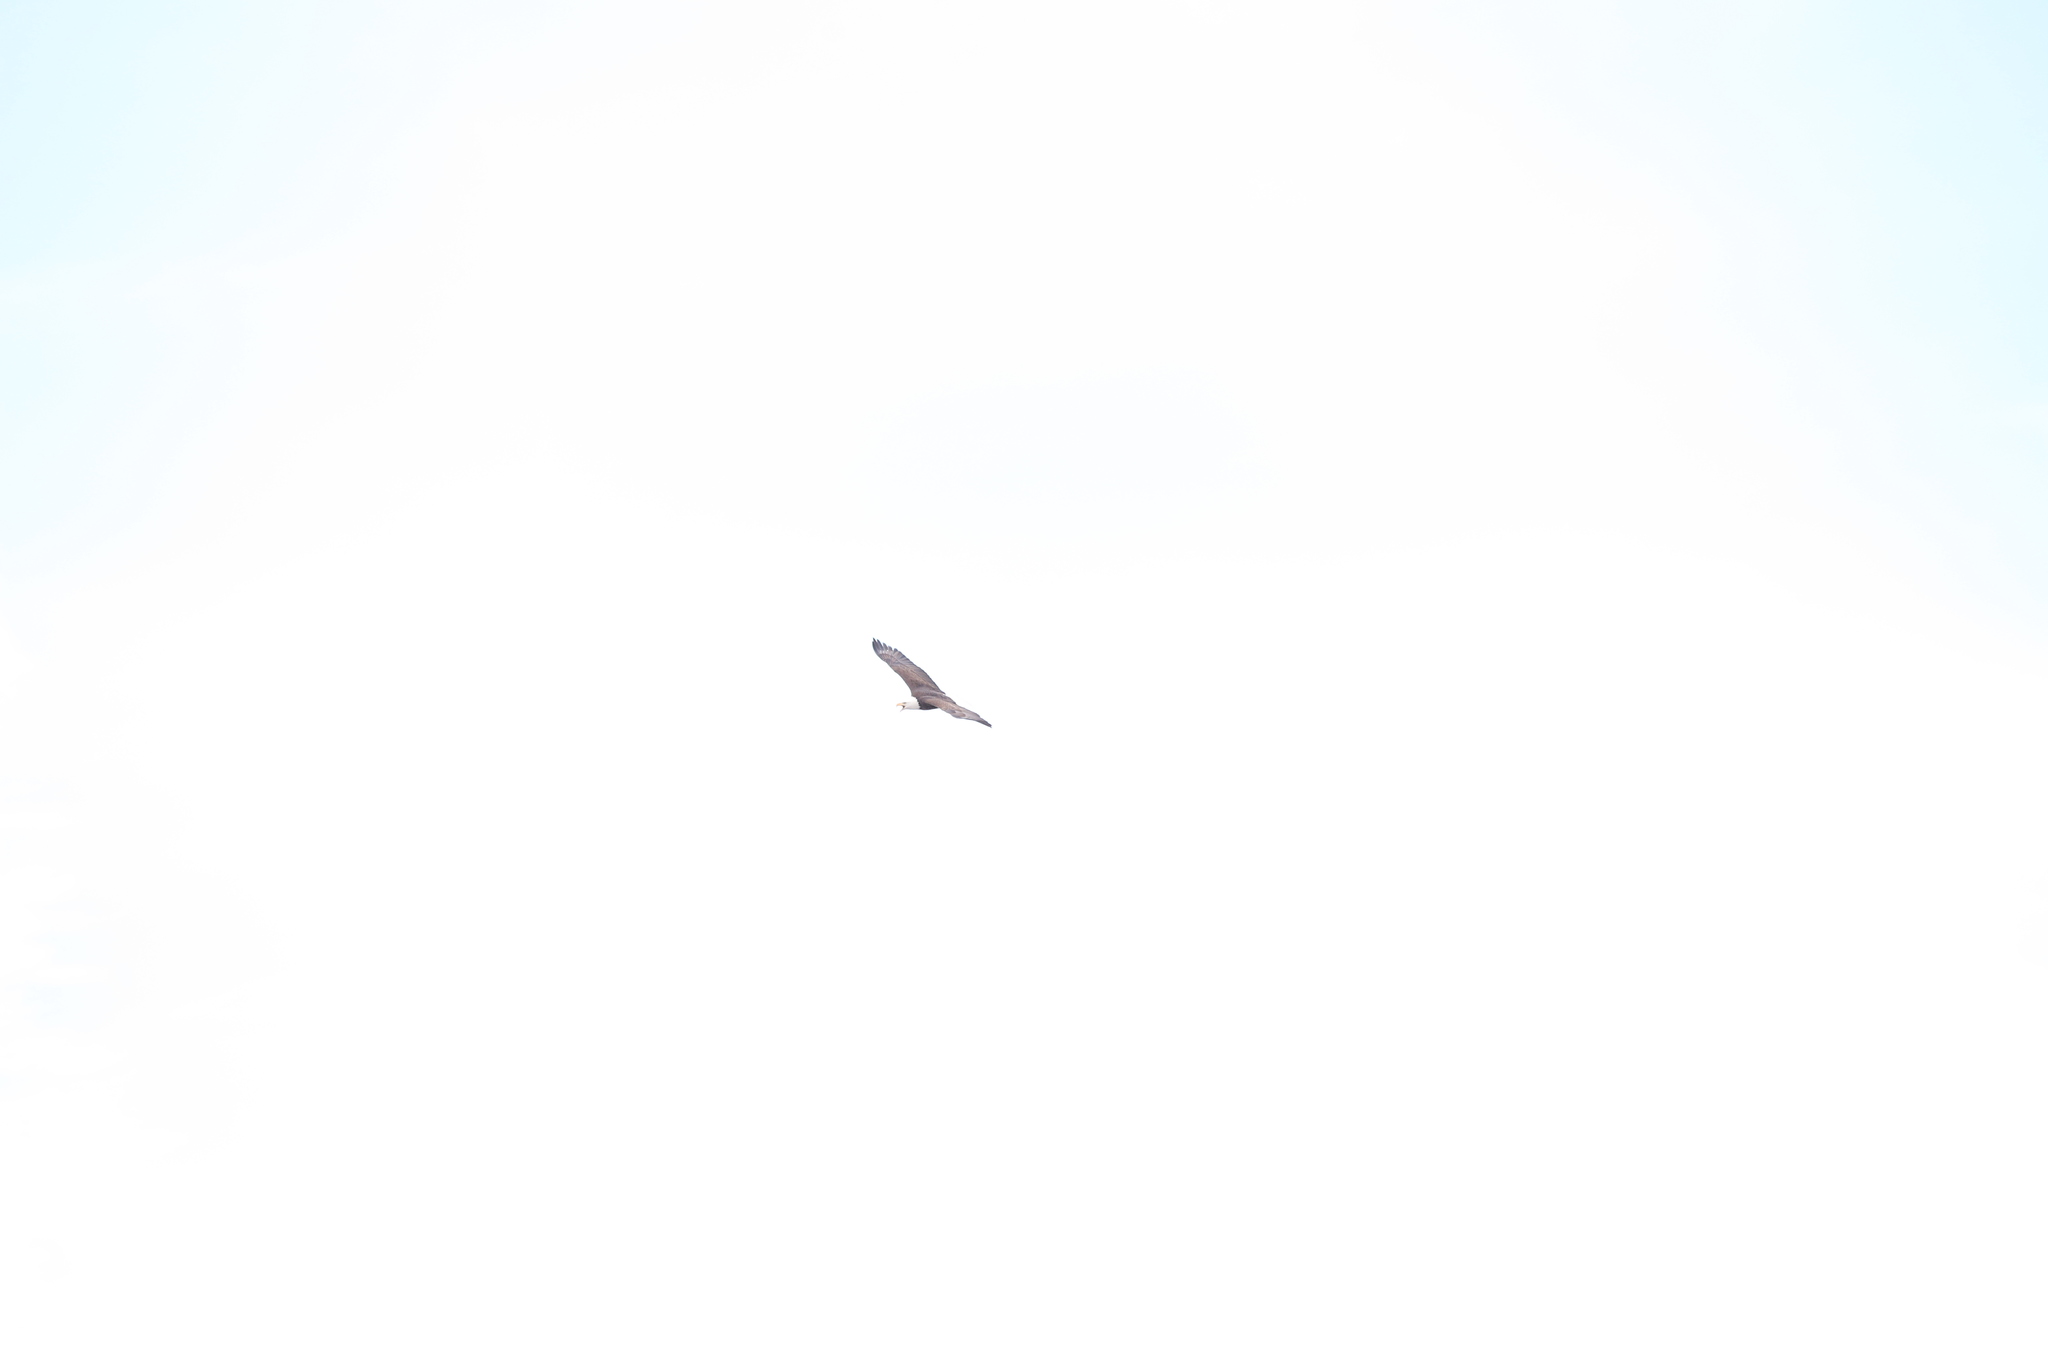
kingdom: Animalia
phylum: Chordata
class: Aves
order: Accipitriformes
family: Accipitridae
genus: Haliaeetus
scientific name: Haliaeetus leucocephalus
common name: Bald eagle
